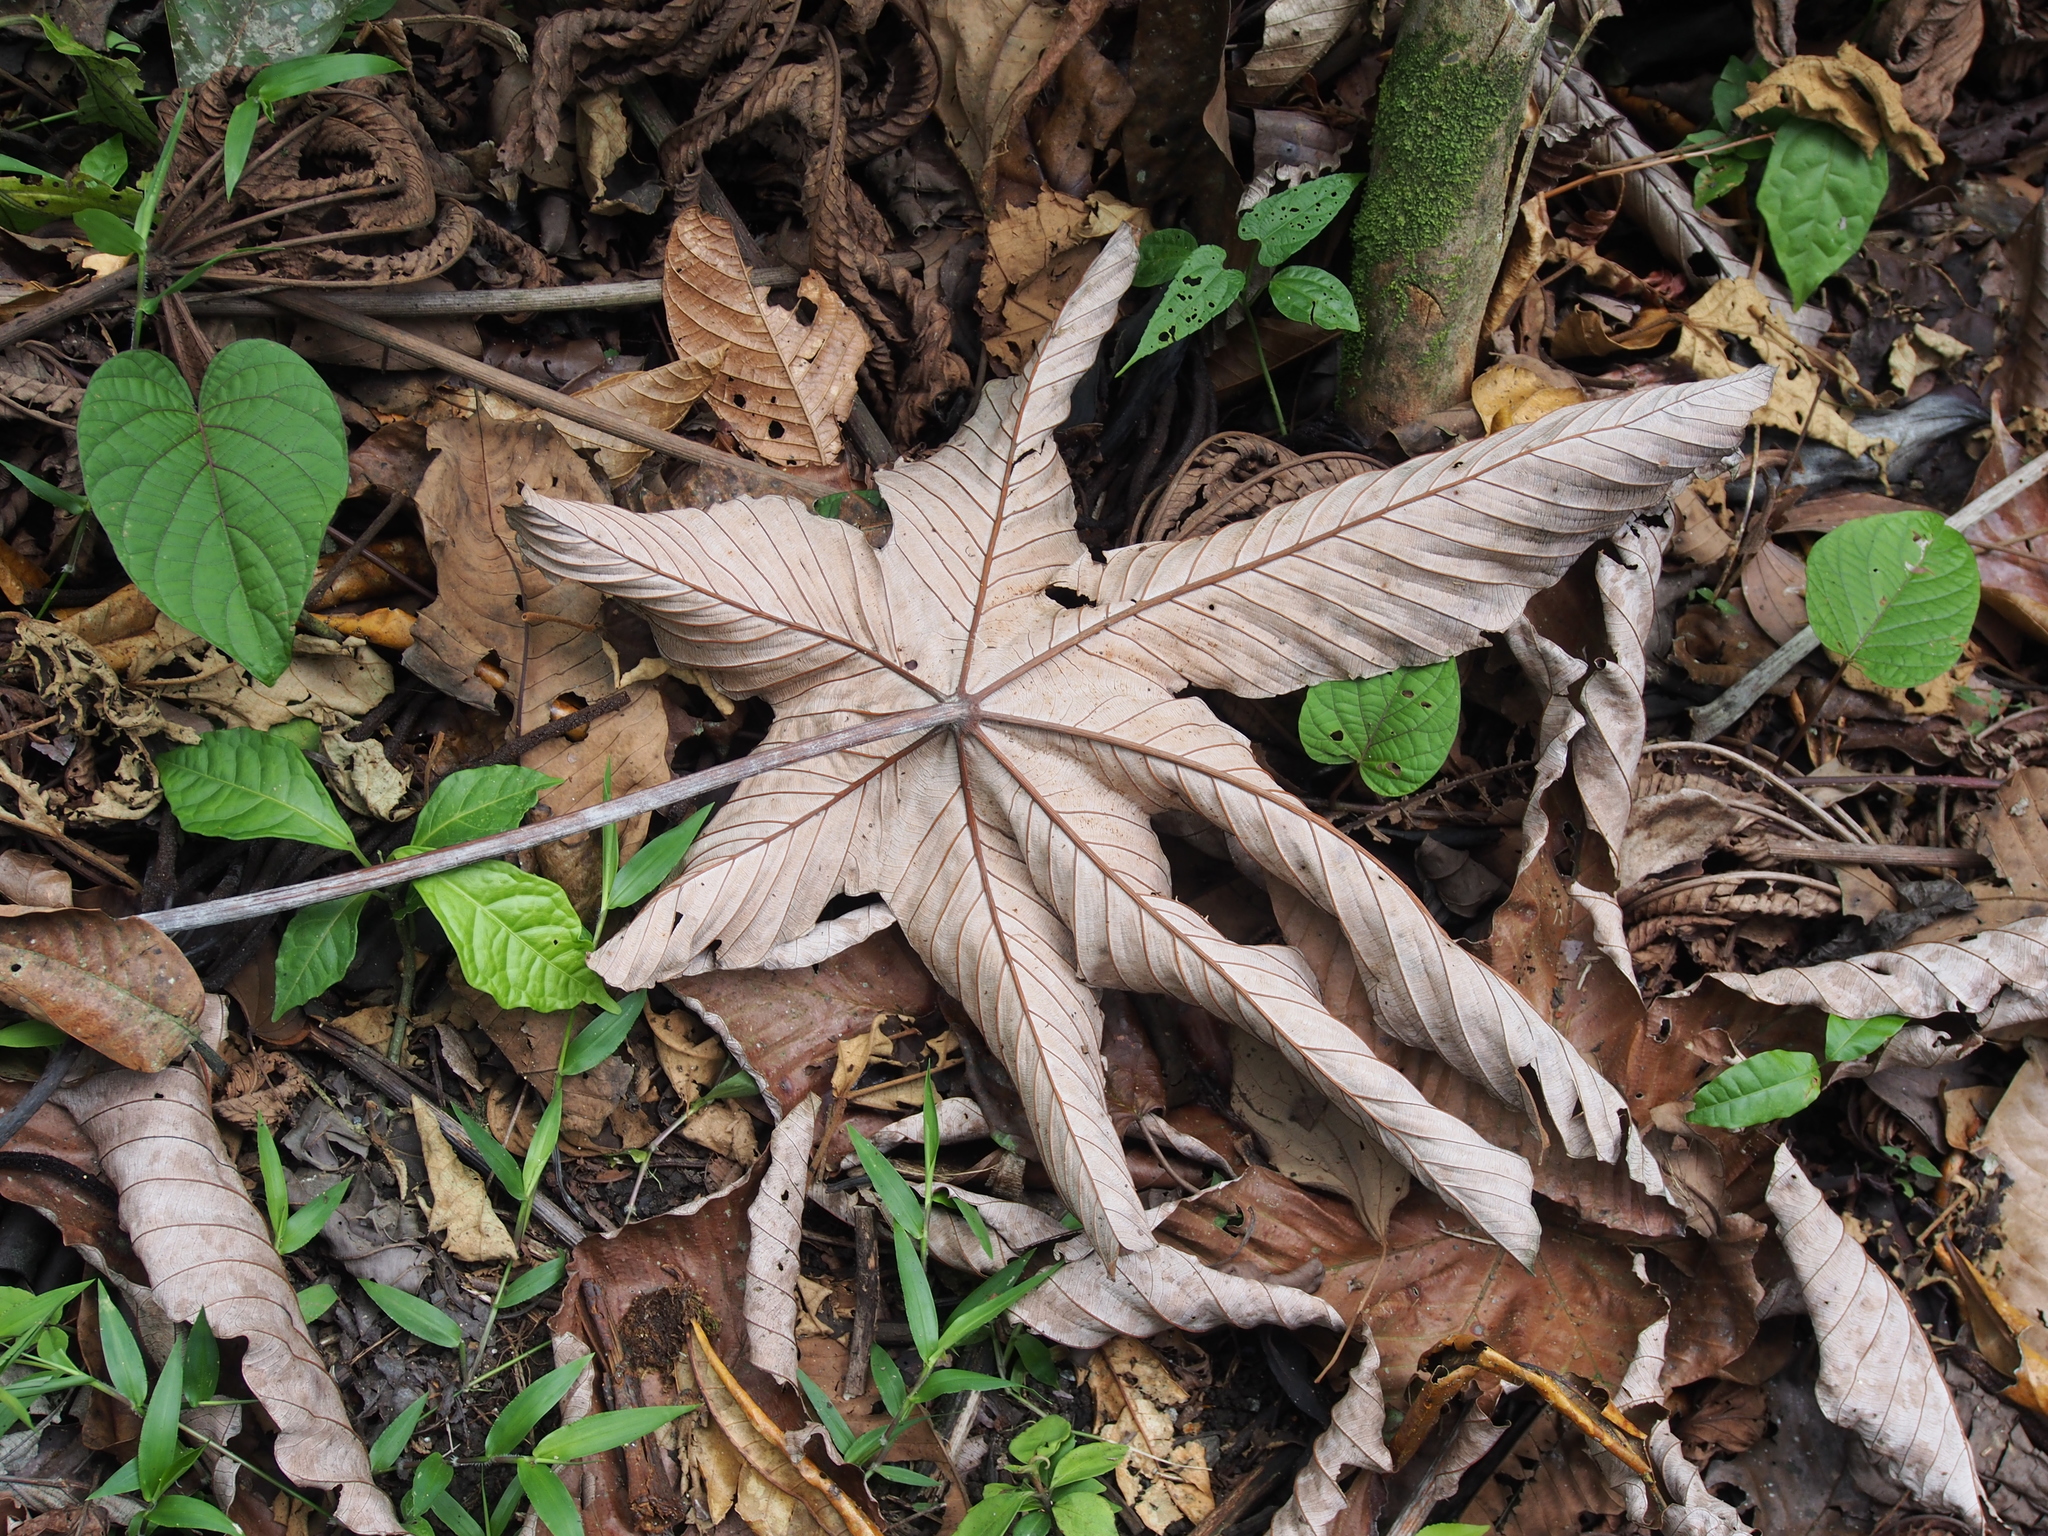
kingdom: Plantae
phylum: Tracheophyta
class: Magnoliopsida
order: Rosales
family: Urticaceae
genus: Cecropia
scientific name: Cecropia insignis
